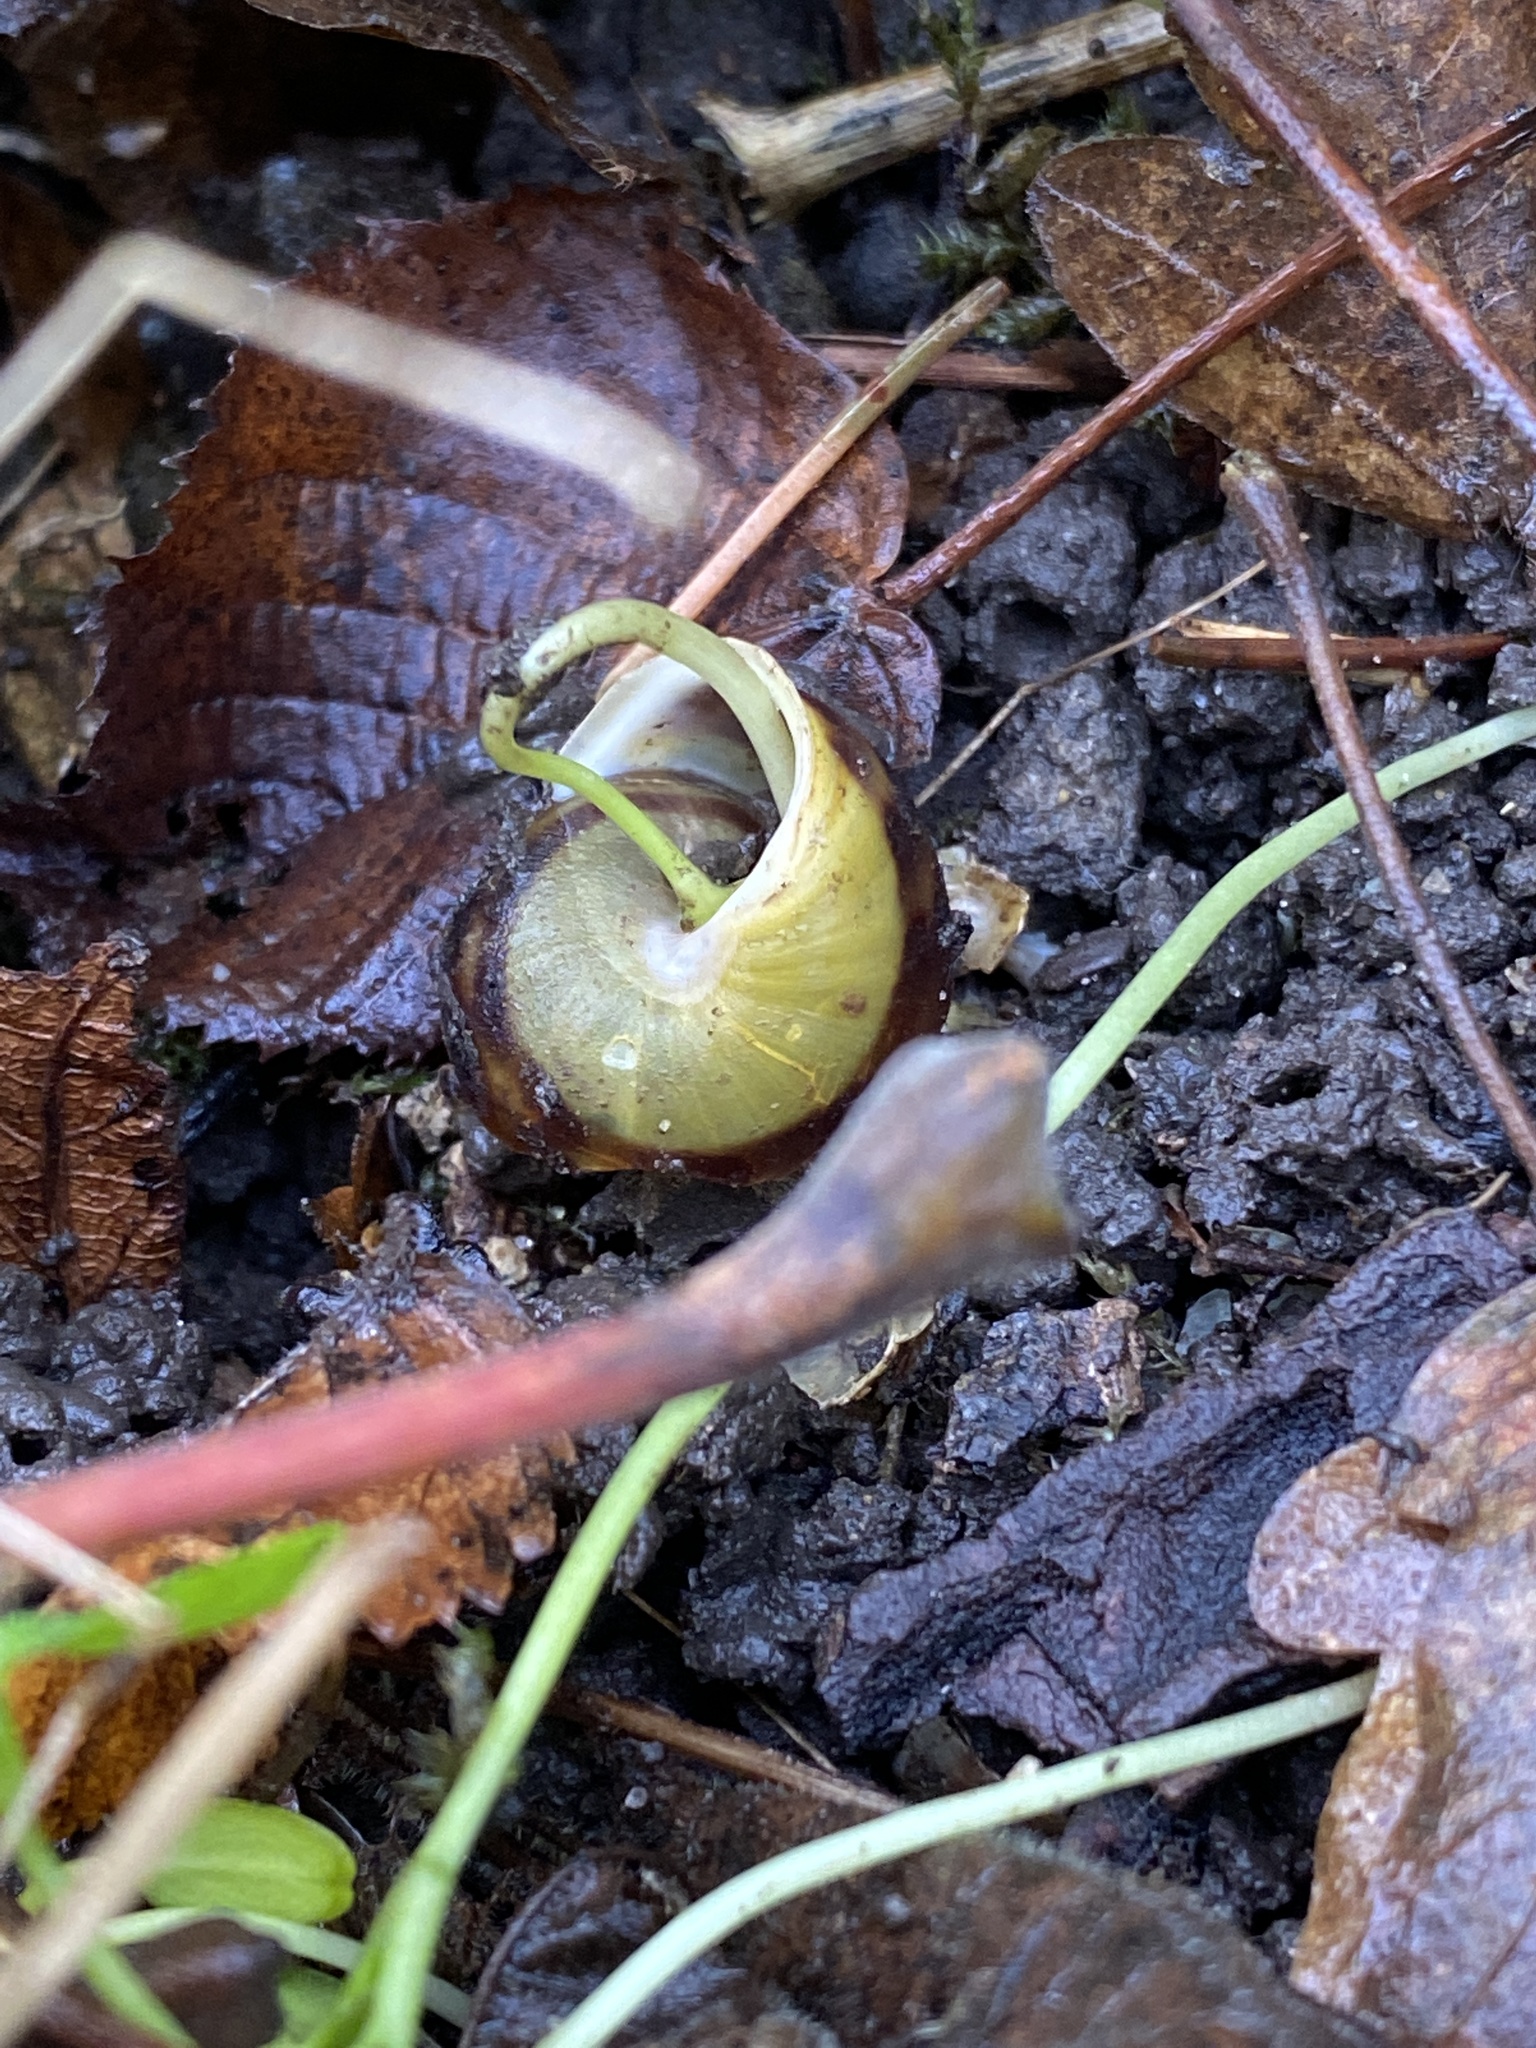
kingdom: Animalia
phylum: Mollusca
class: Gastropoda
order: Stylommatophora
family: Helicidae
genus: Cepaea
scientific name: Cepaea hortensis
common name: White-lip gardensnail
